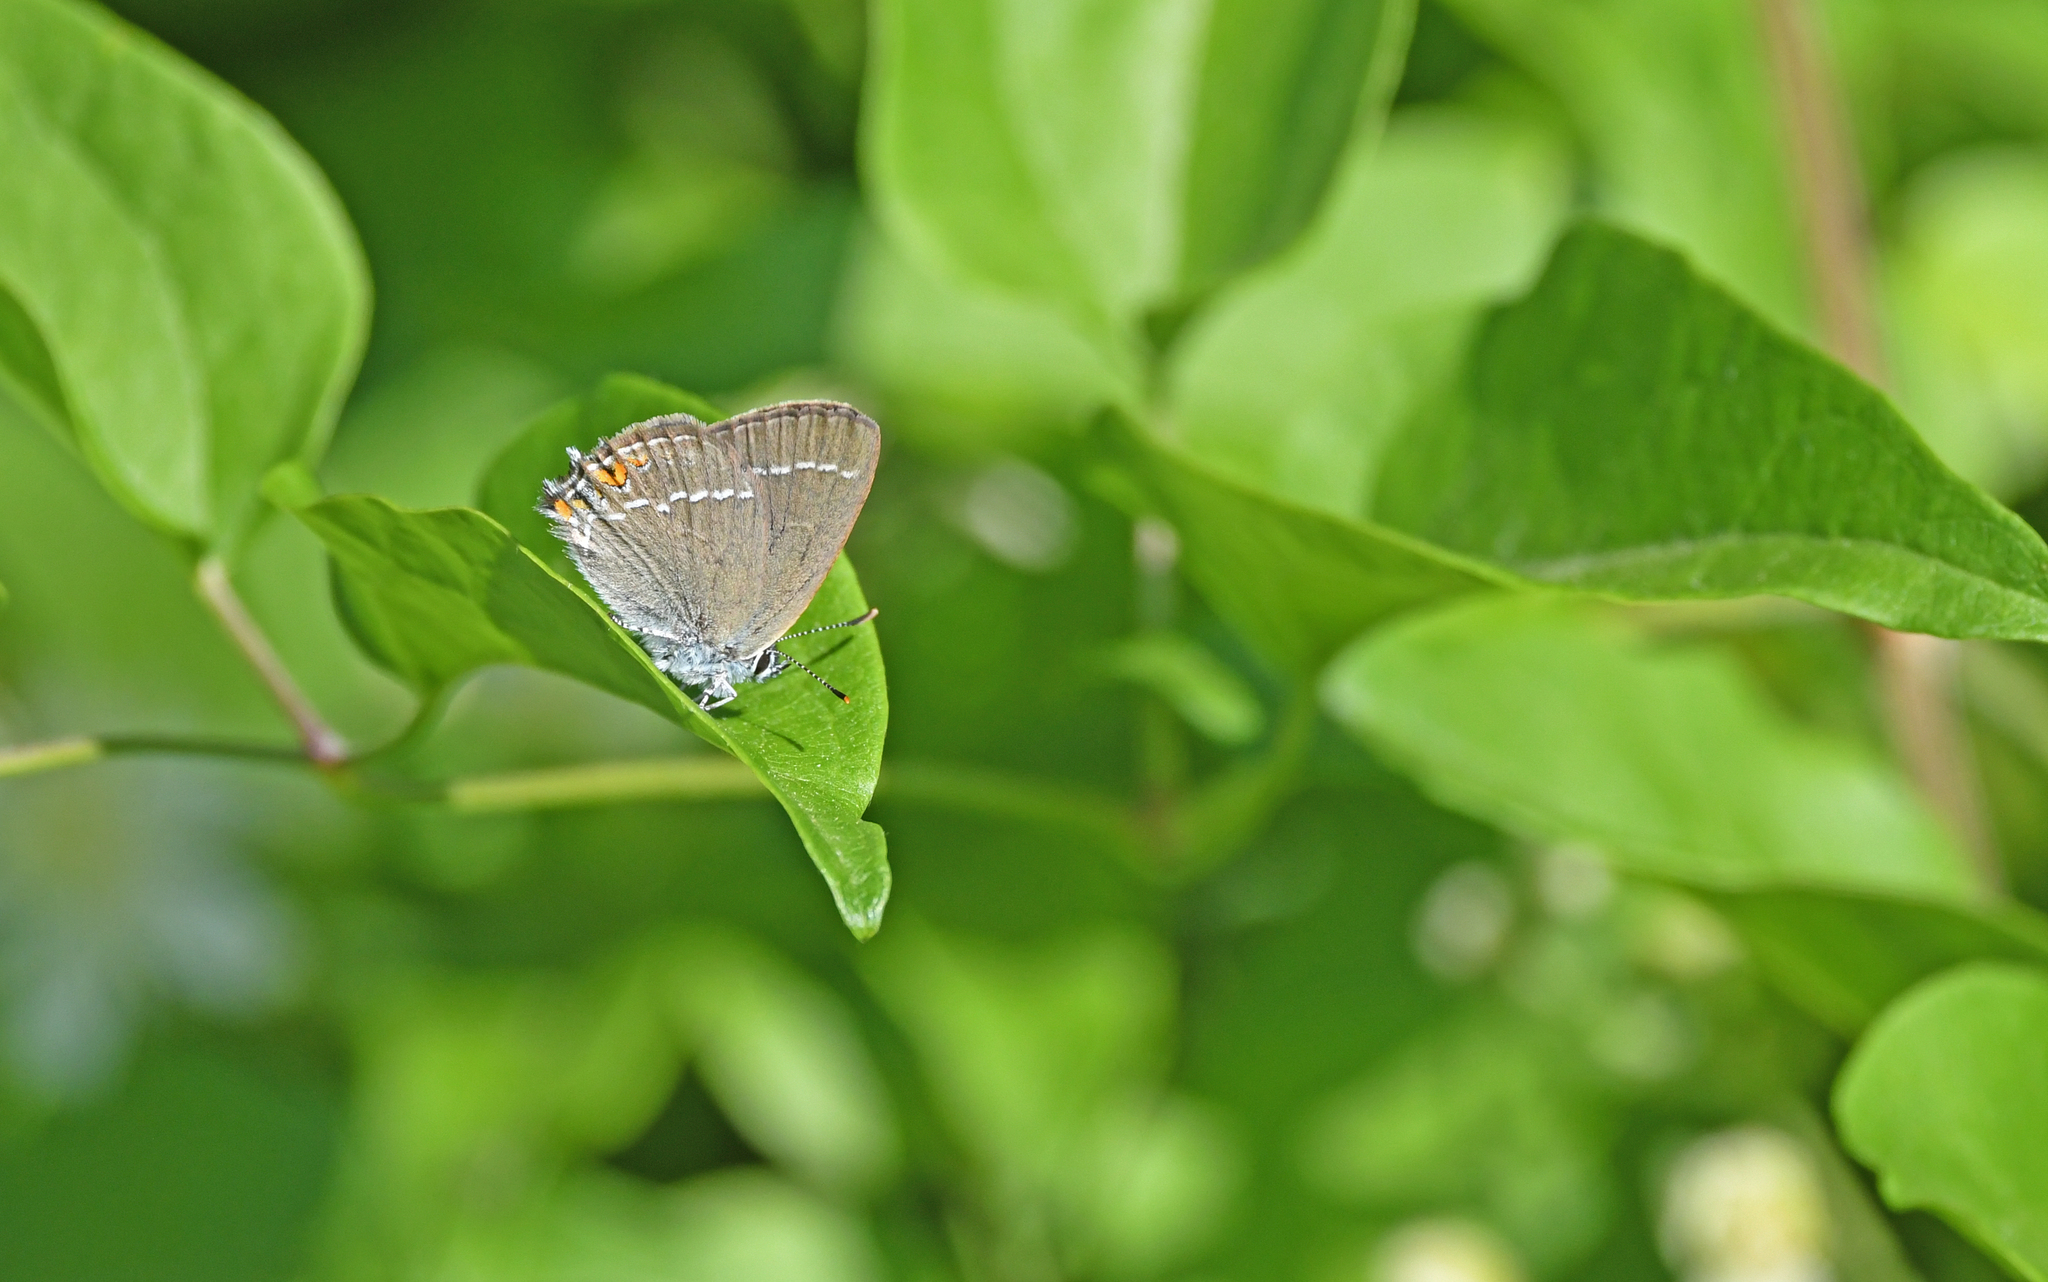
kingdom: Animalia
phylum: Arthropoda
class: Insecta
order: Lepidoptera
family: Lycaenidae
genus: Strymon
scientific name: Strymon acaciae
